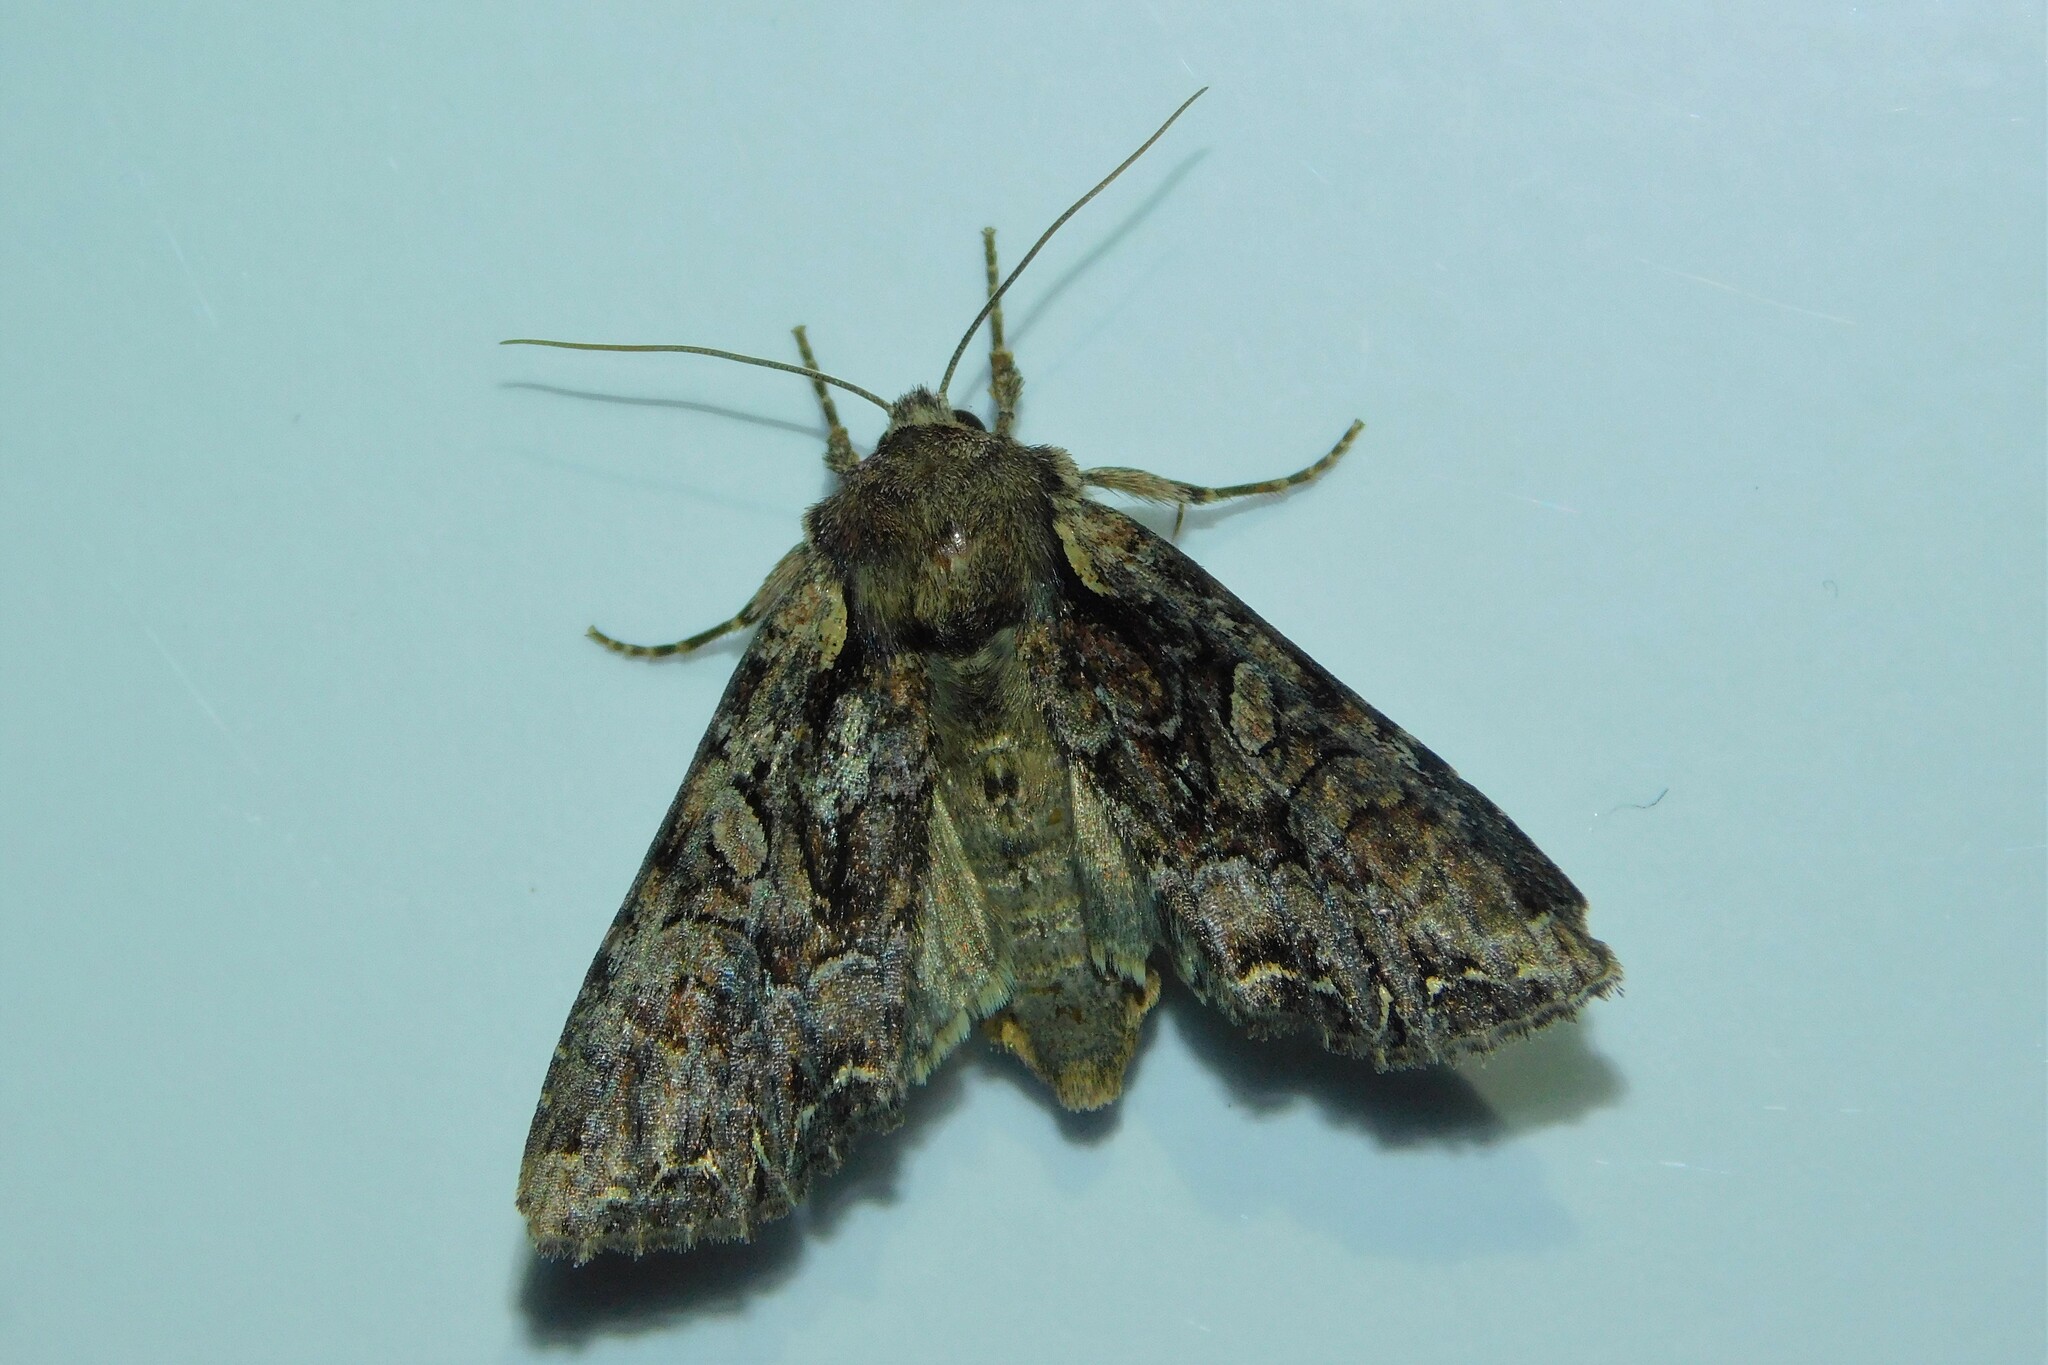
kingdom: Animalia
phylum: Arthropoda
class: Insecta
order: Lepidoptera
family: Noctuidae
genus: Lacanobia
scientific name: Lacanobia thalassina
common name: Pale-shouldered brocade
